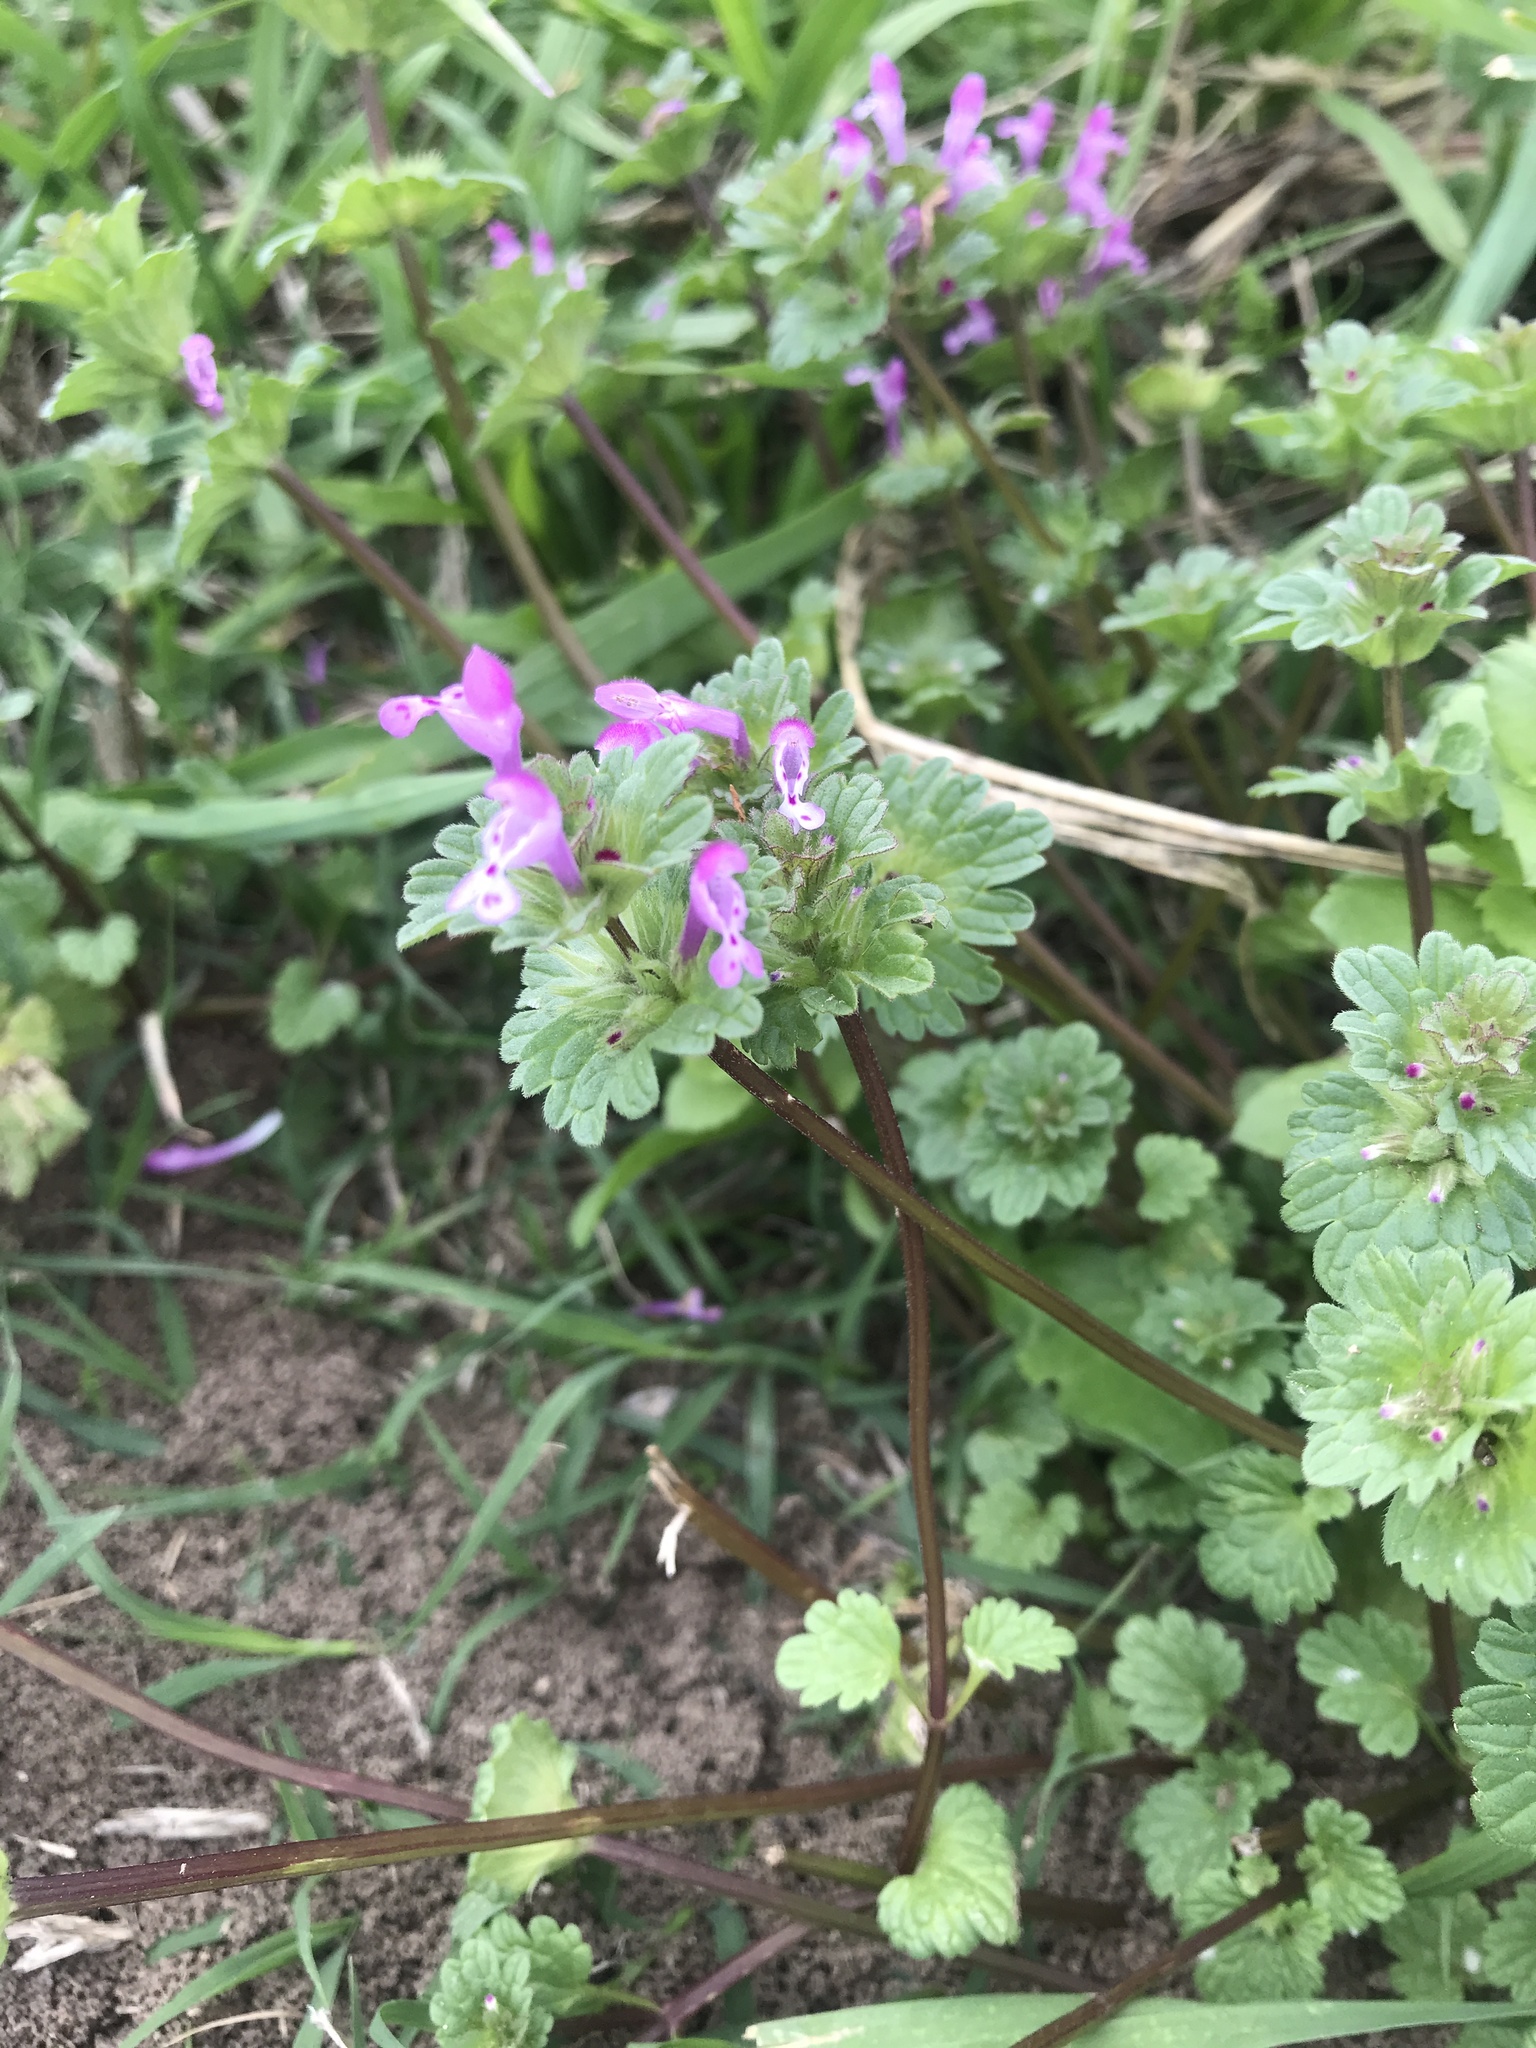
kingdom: Plantae
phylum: Tracheophyta
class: Magnoliopsida
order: Lamiales
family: Lamiaceae
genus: Lamium
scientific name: Lamium amplexicaule
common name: Henbit dead-nettle
